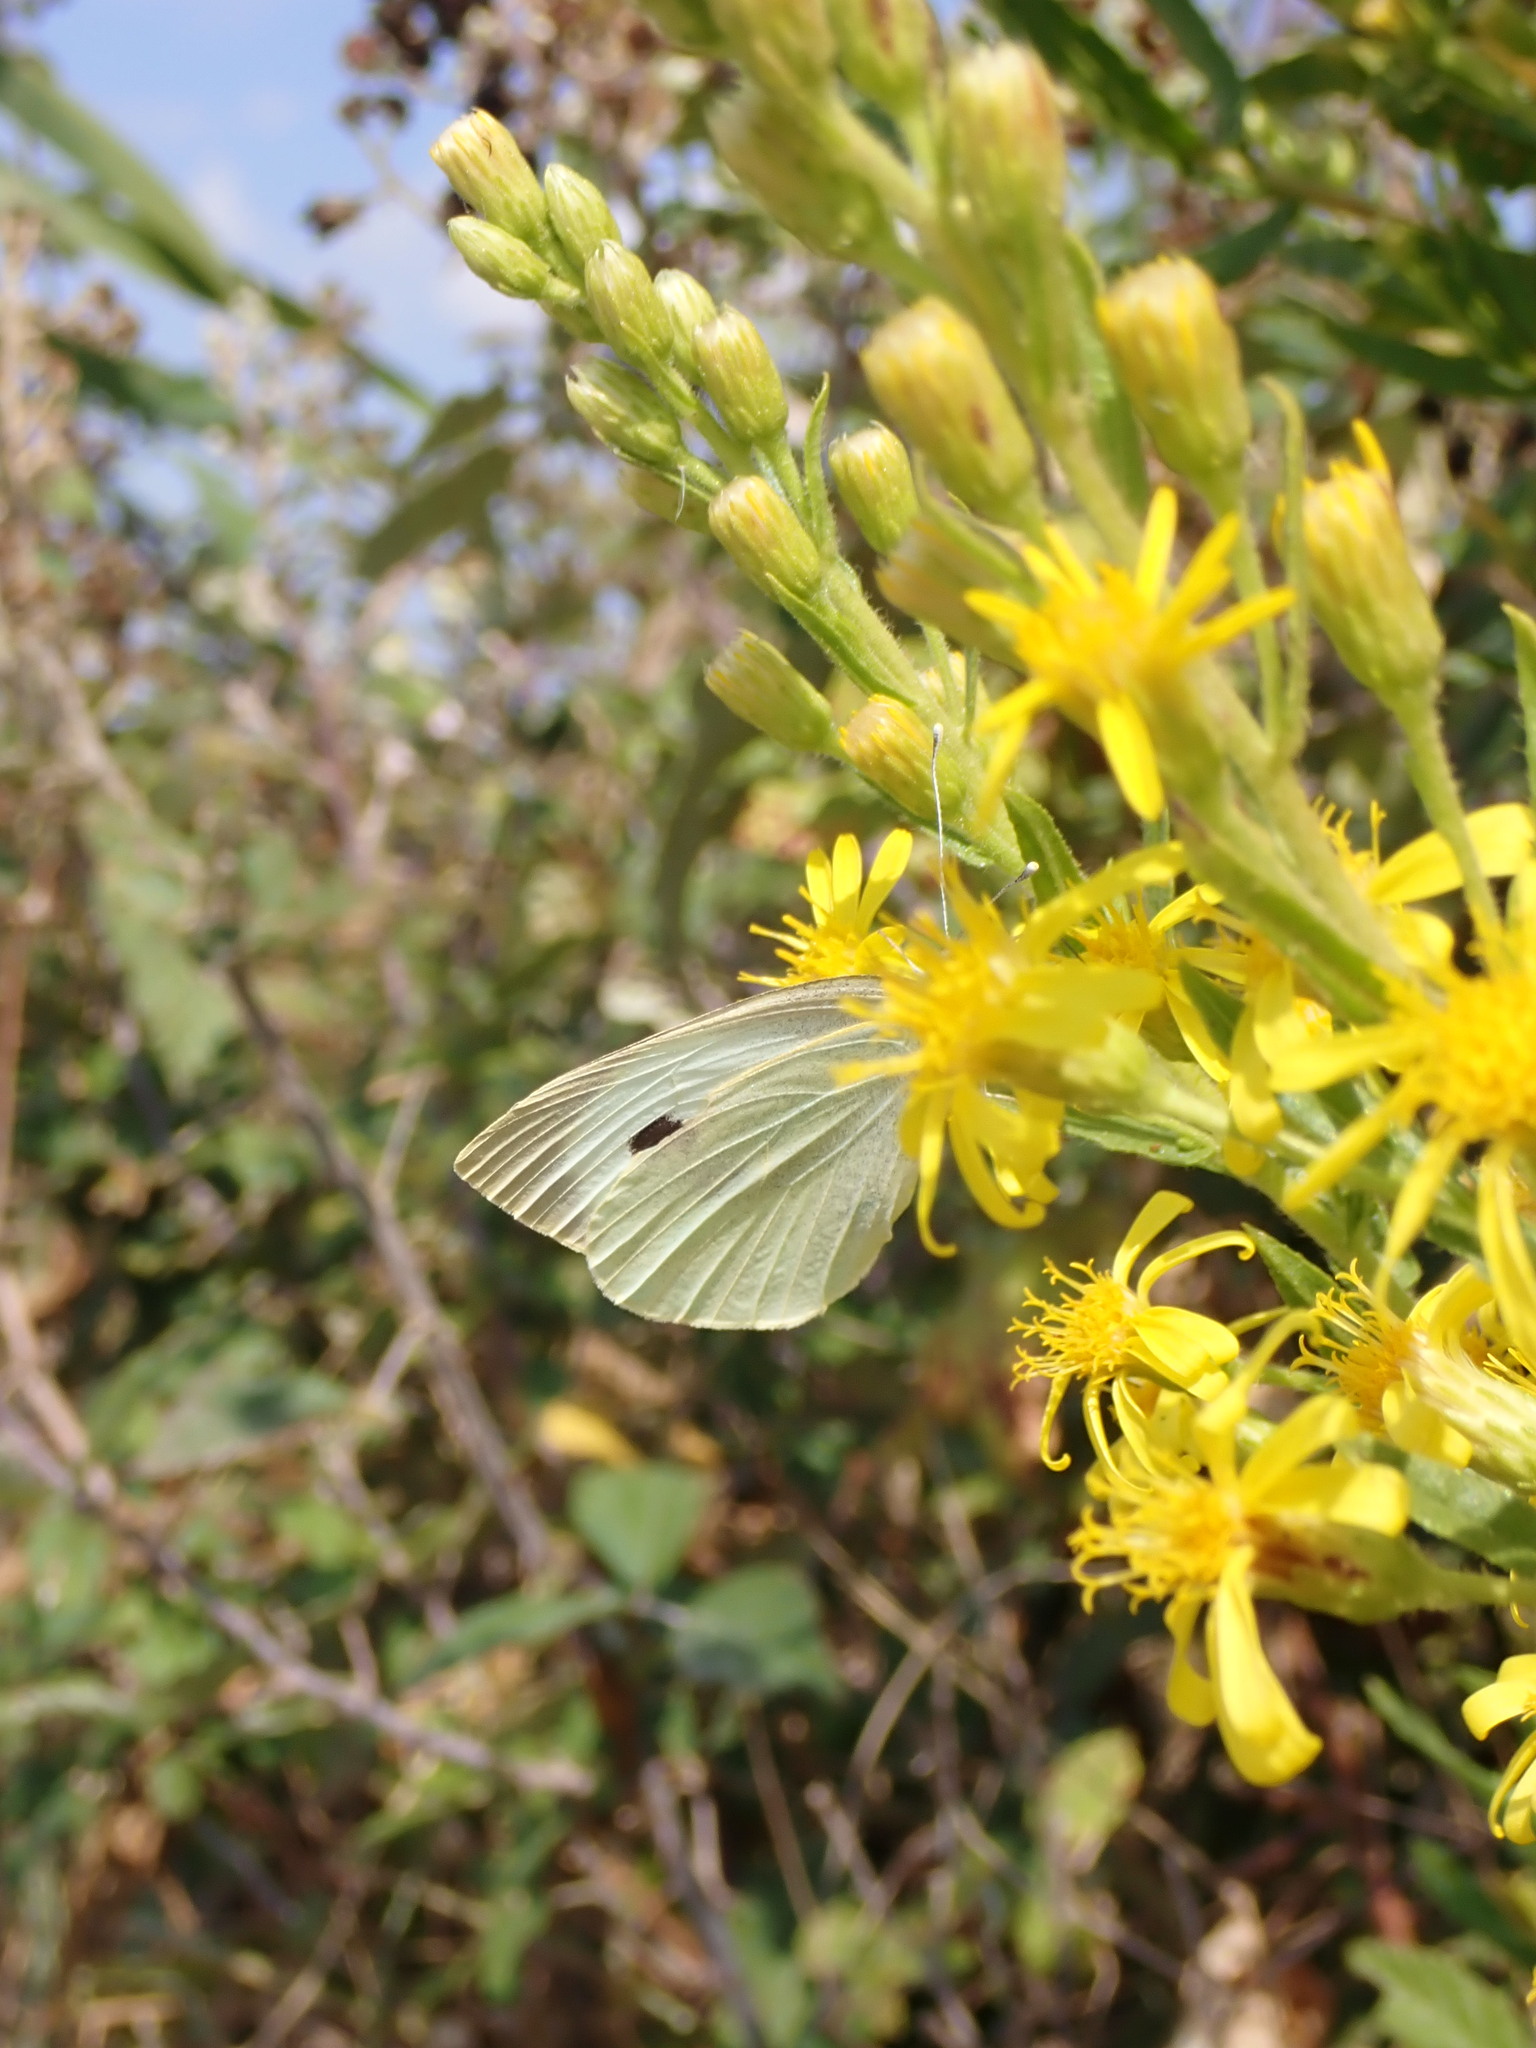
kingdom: Animalia
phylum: Arthropoda
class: Insecta
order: Lepidoptera
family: Pieridae
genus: Pieris
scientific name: Pieris brassicae
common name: Large white
